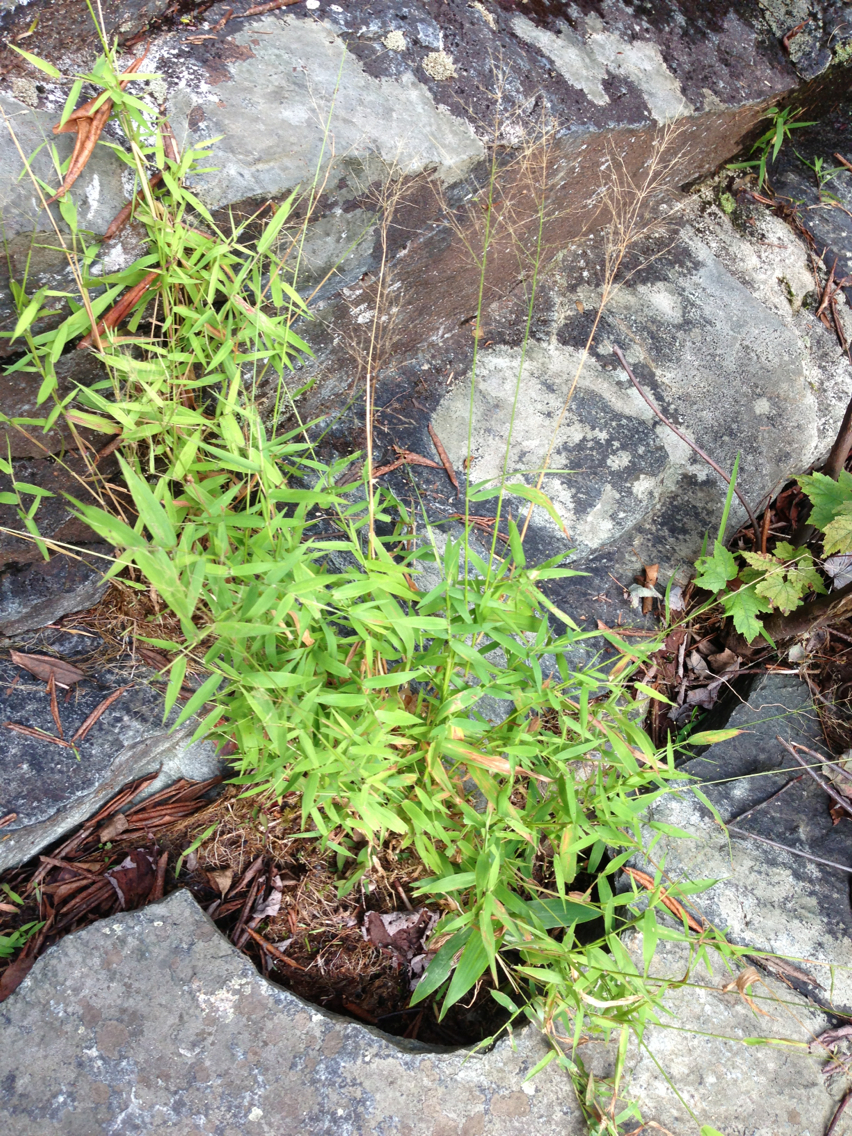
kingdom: Plantae
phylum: Tracheophyta
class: Liliopsida
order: Poales
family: Poaceae
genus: Dichanthelium
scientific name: Dichanthelium
